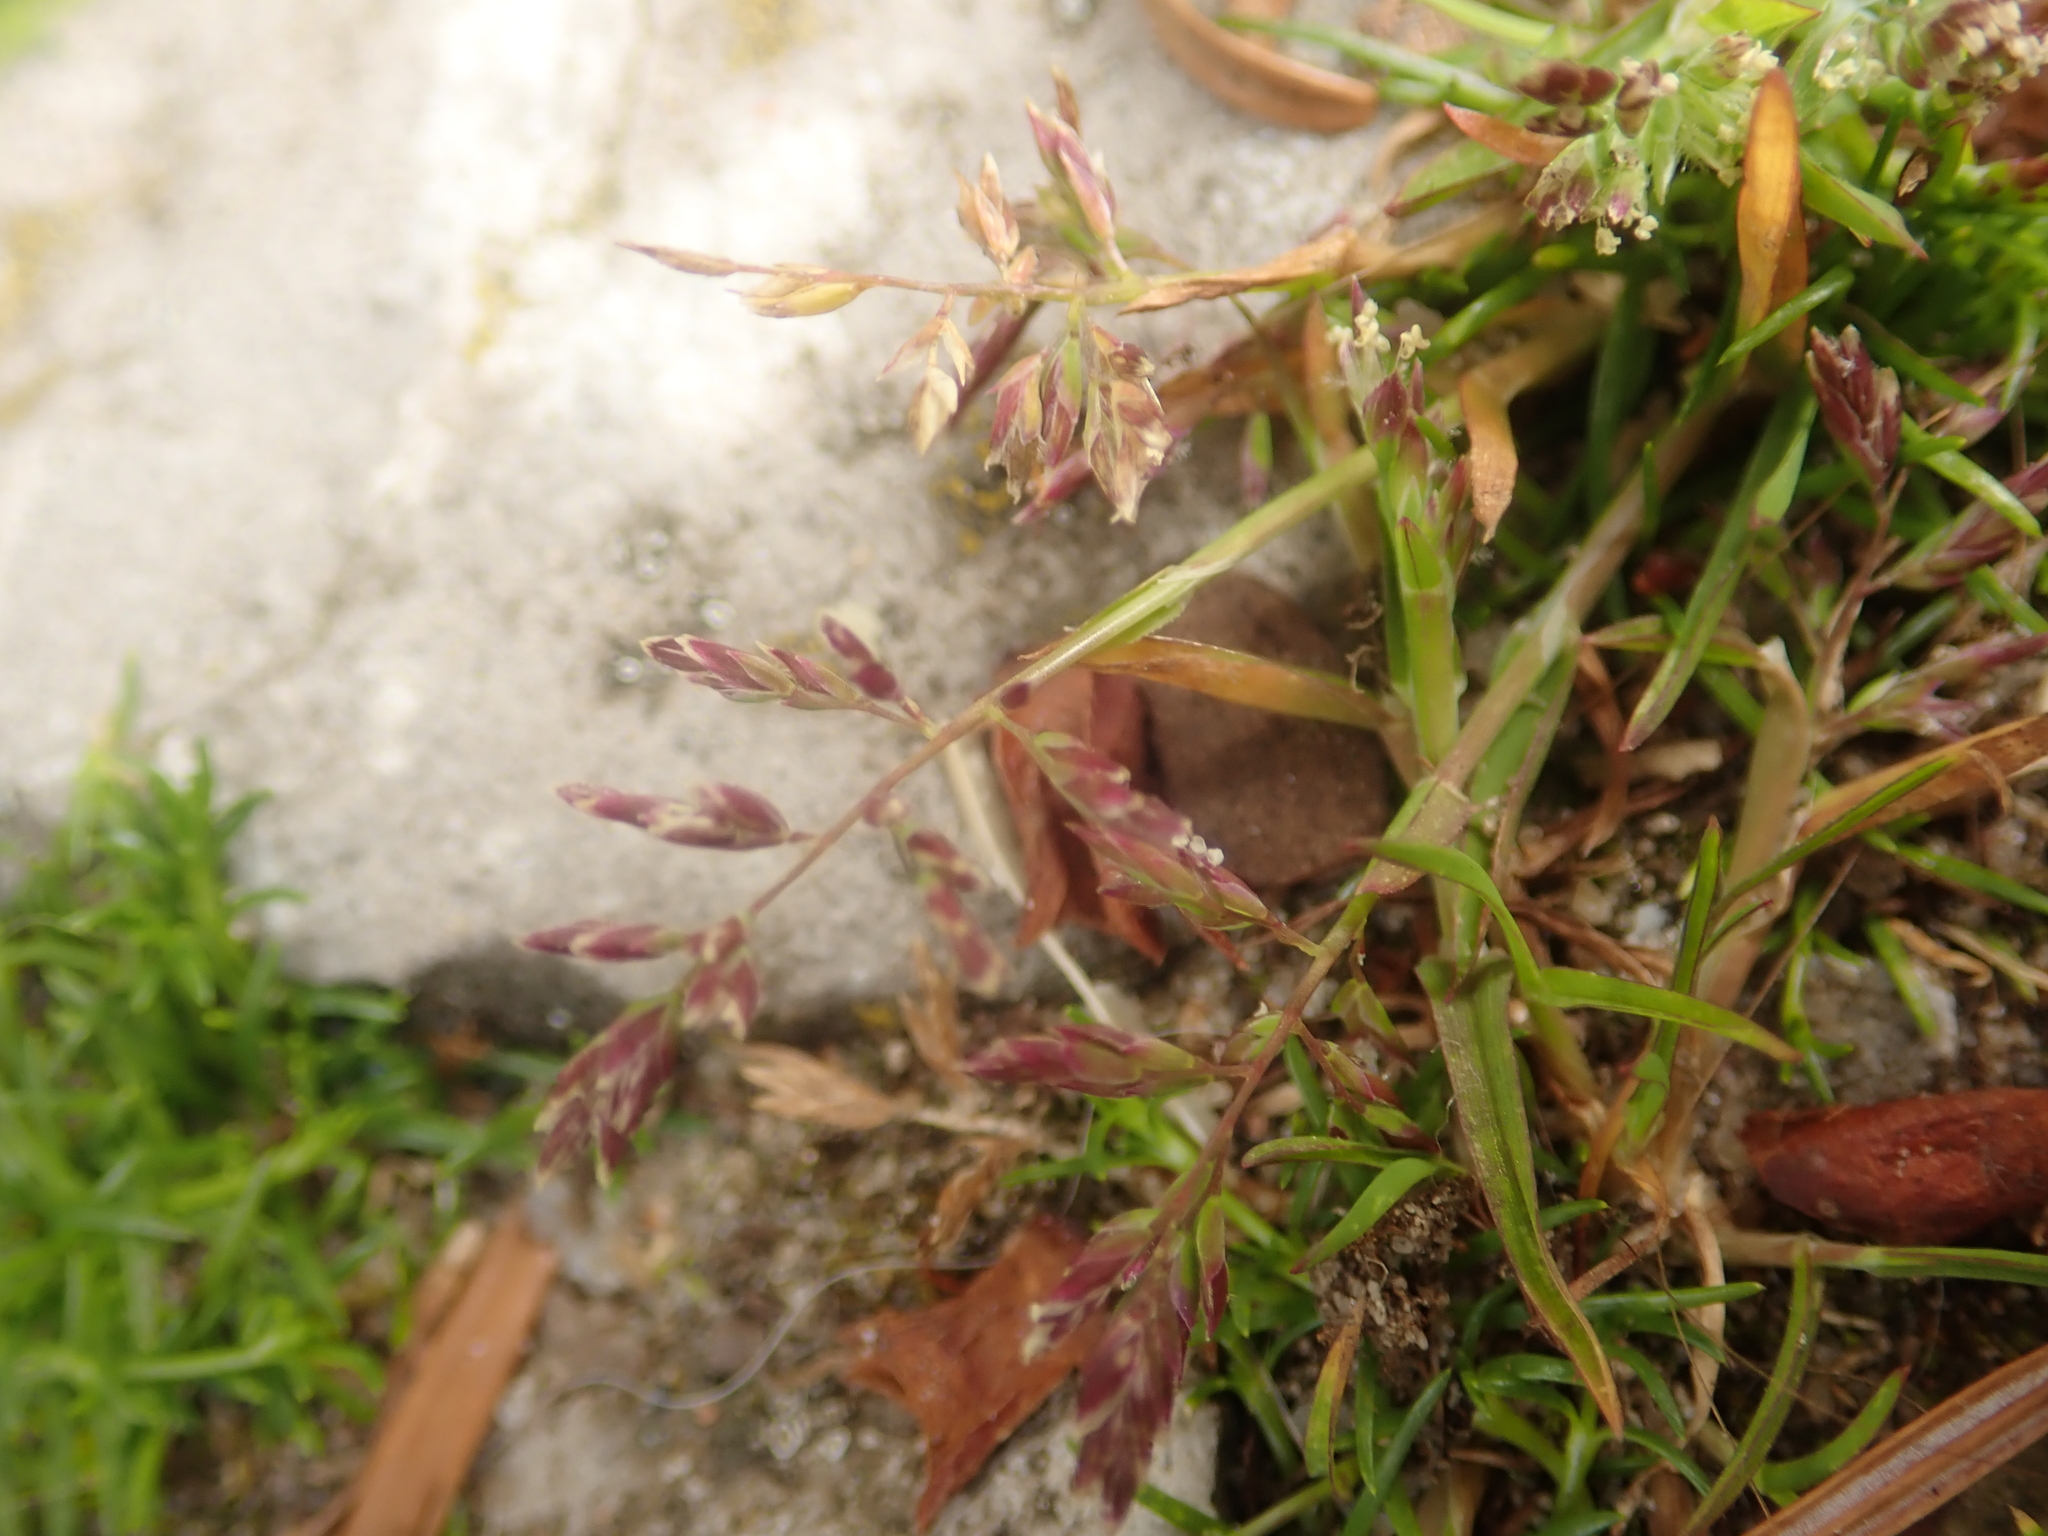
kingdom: Plantae
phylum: Tracheophyta
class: Liliopsida
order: Poales
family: Poaceae
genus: Poa
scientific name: Poa annua
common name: Annual bluegrass
